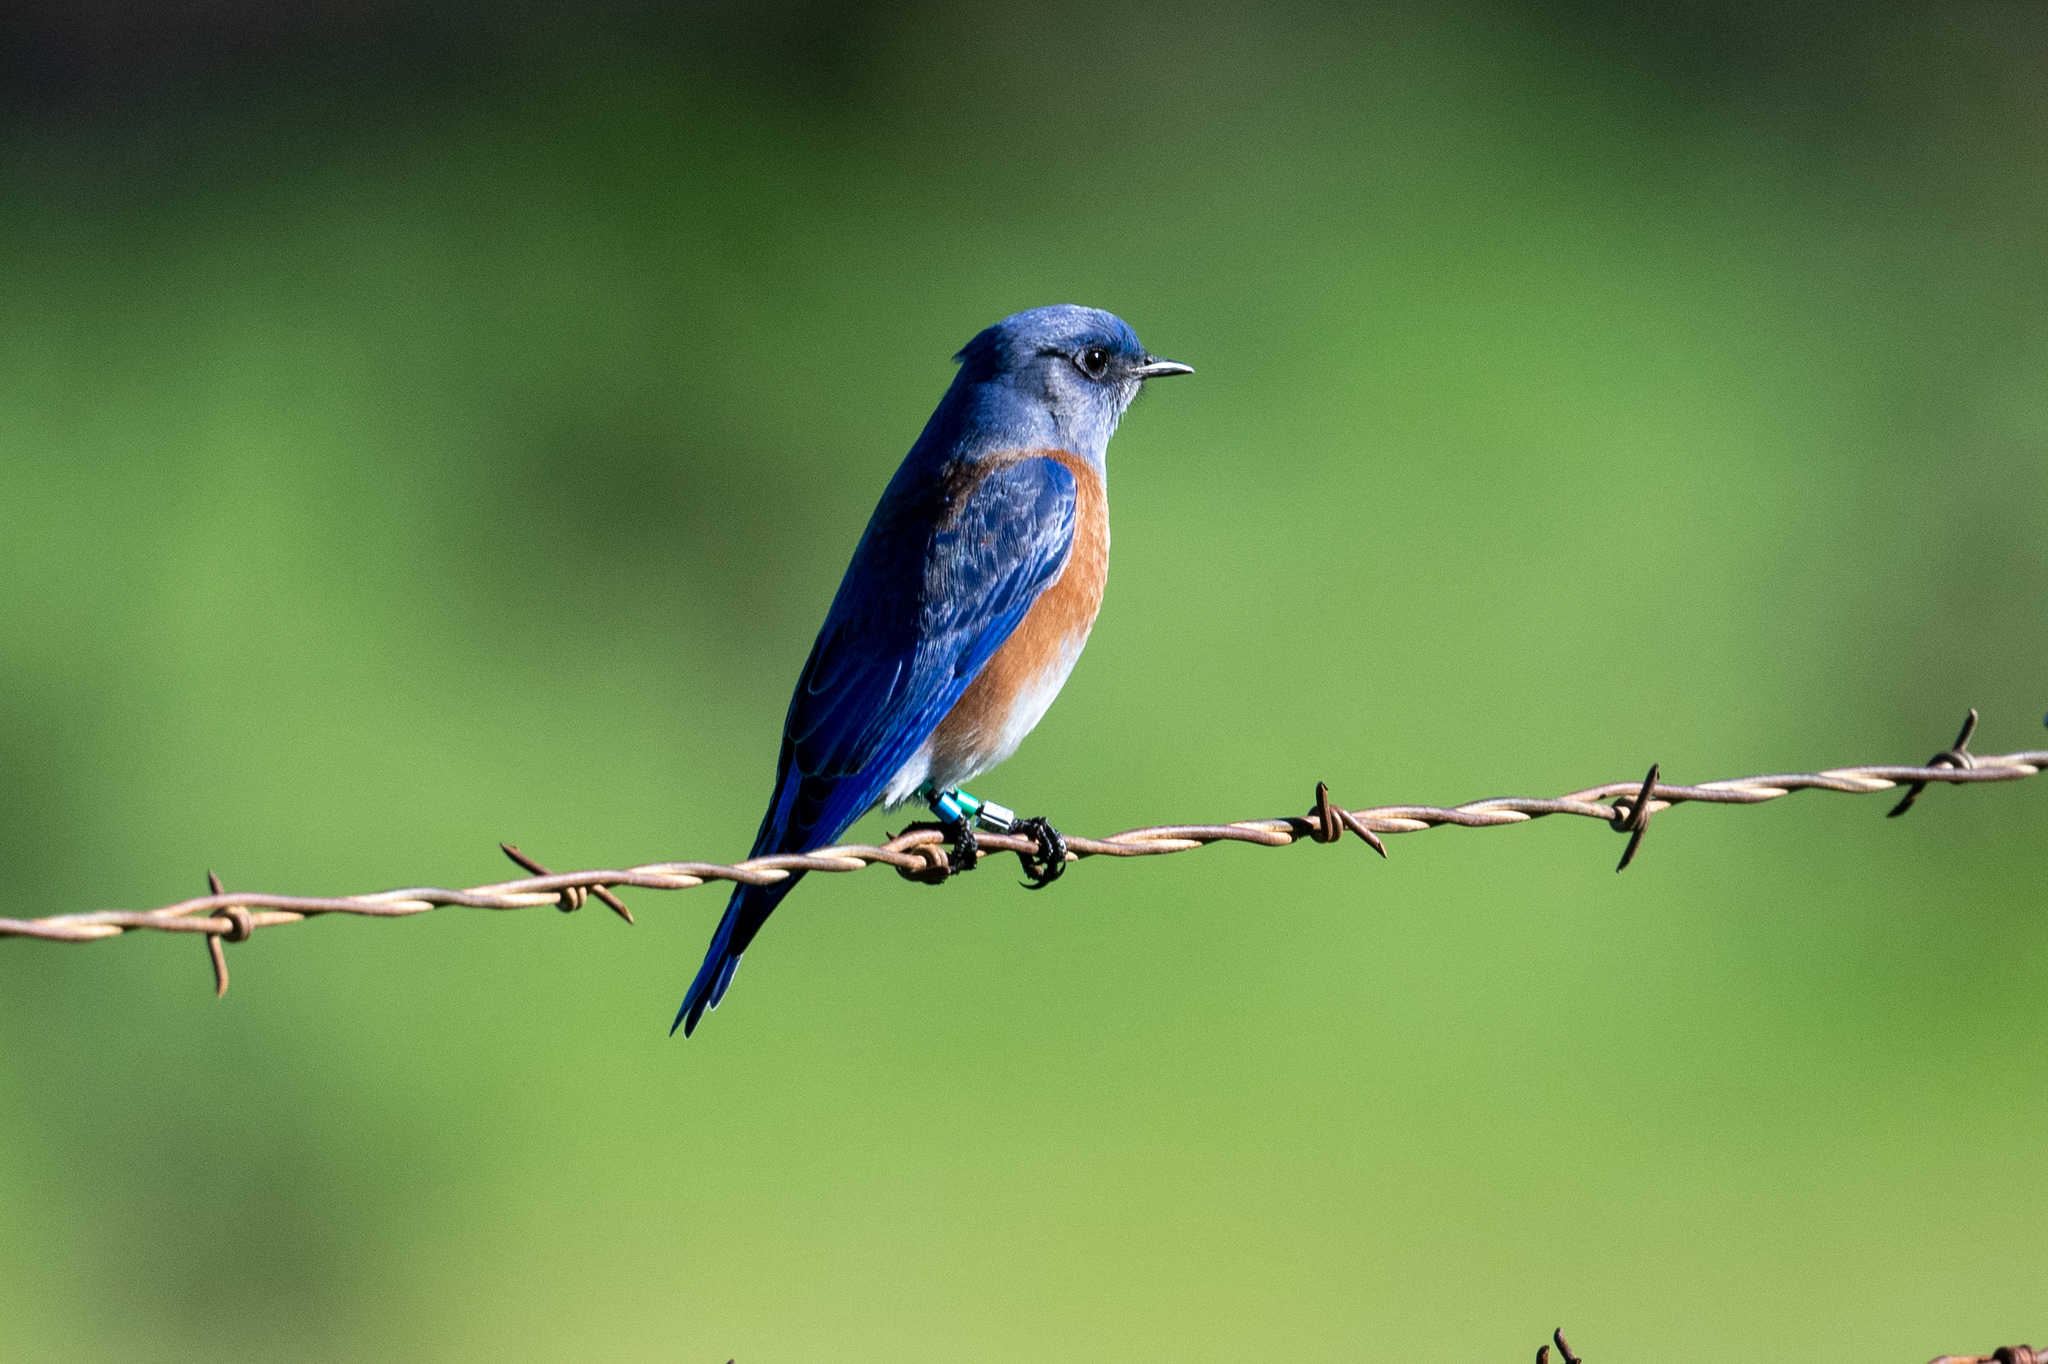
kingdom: Animalia
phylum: Chordata
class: Aves
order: Passeriformes
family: Turdidae
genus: Sialia
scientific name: Sialia mexicana
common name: Western bluebird
